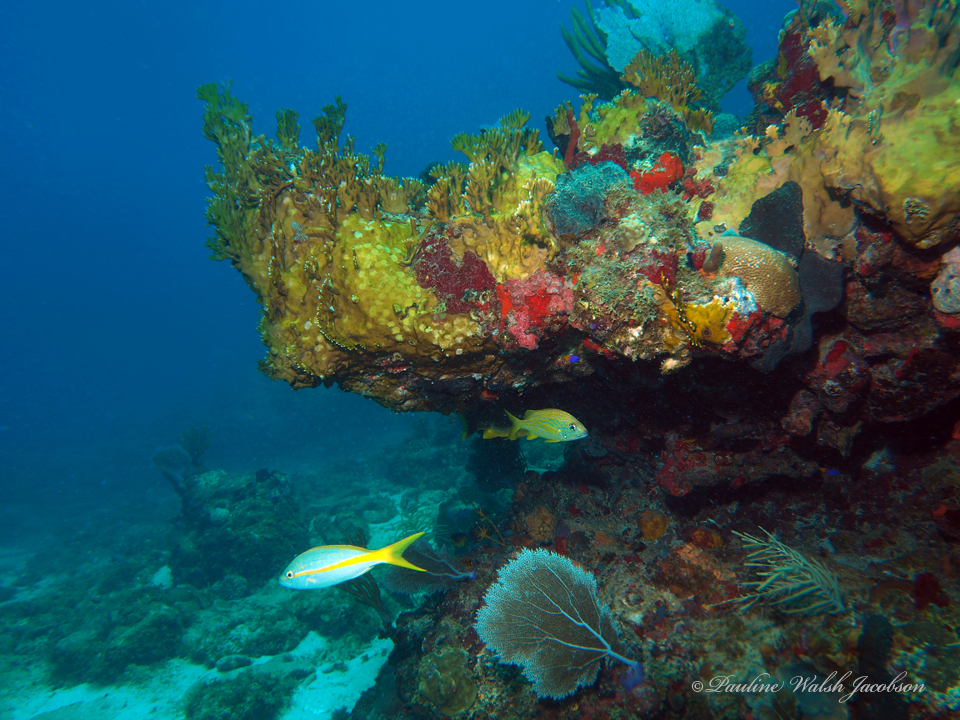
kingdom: Animalia
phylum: Chordata
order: Perciformes
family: Haemulidae
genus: Haemulon
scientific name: Haemulon flavolineatum
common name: French grunt
